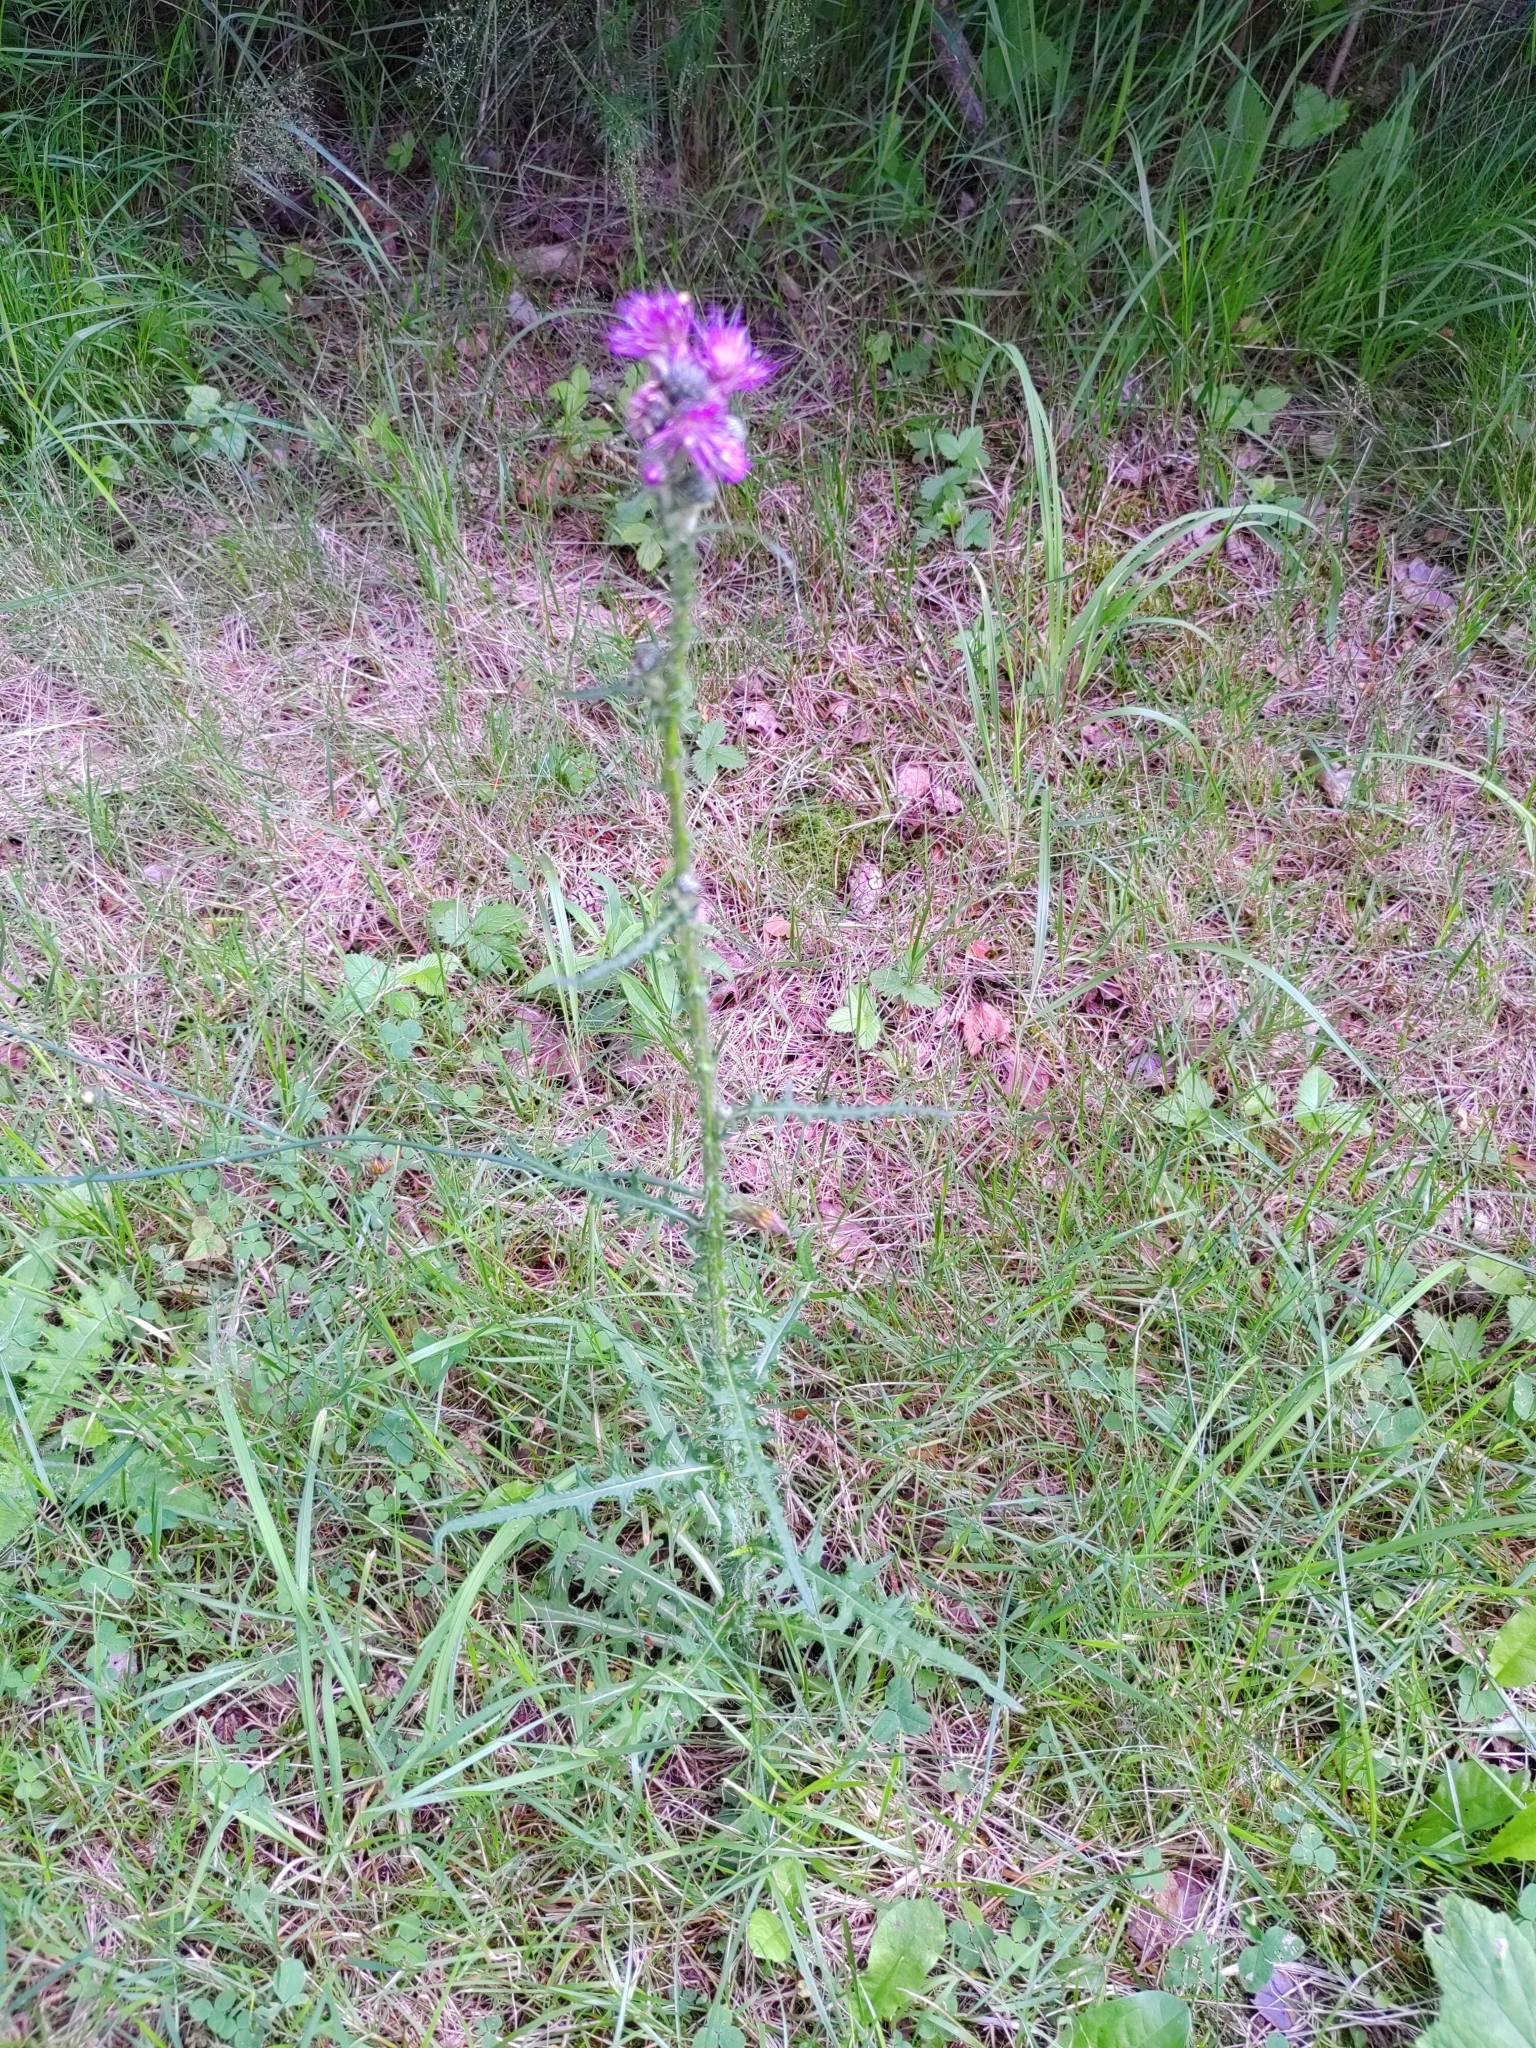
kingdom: Plantae
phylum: Tracheophyta
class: Magnoliopsida
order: Asterales
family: Asteraceae
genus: Cirsium
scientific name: Cirsium palustre
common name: Marsh thistle
